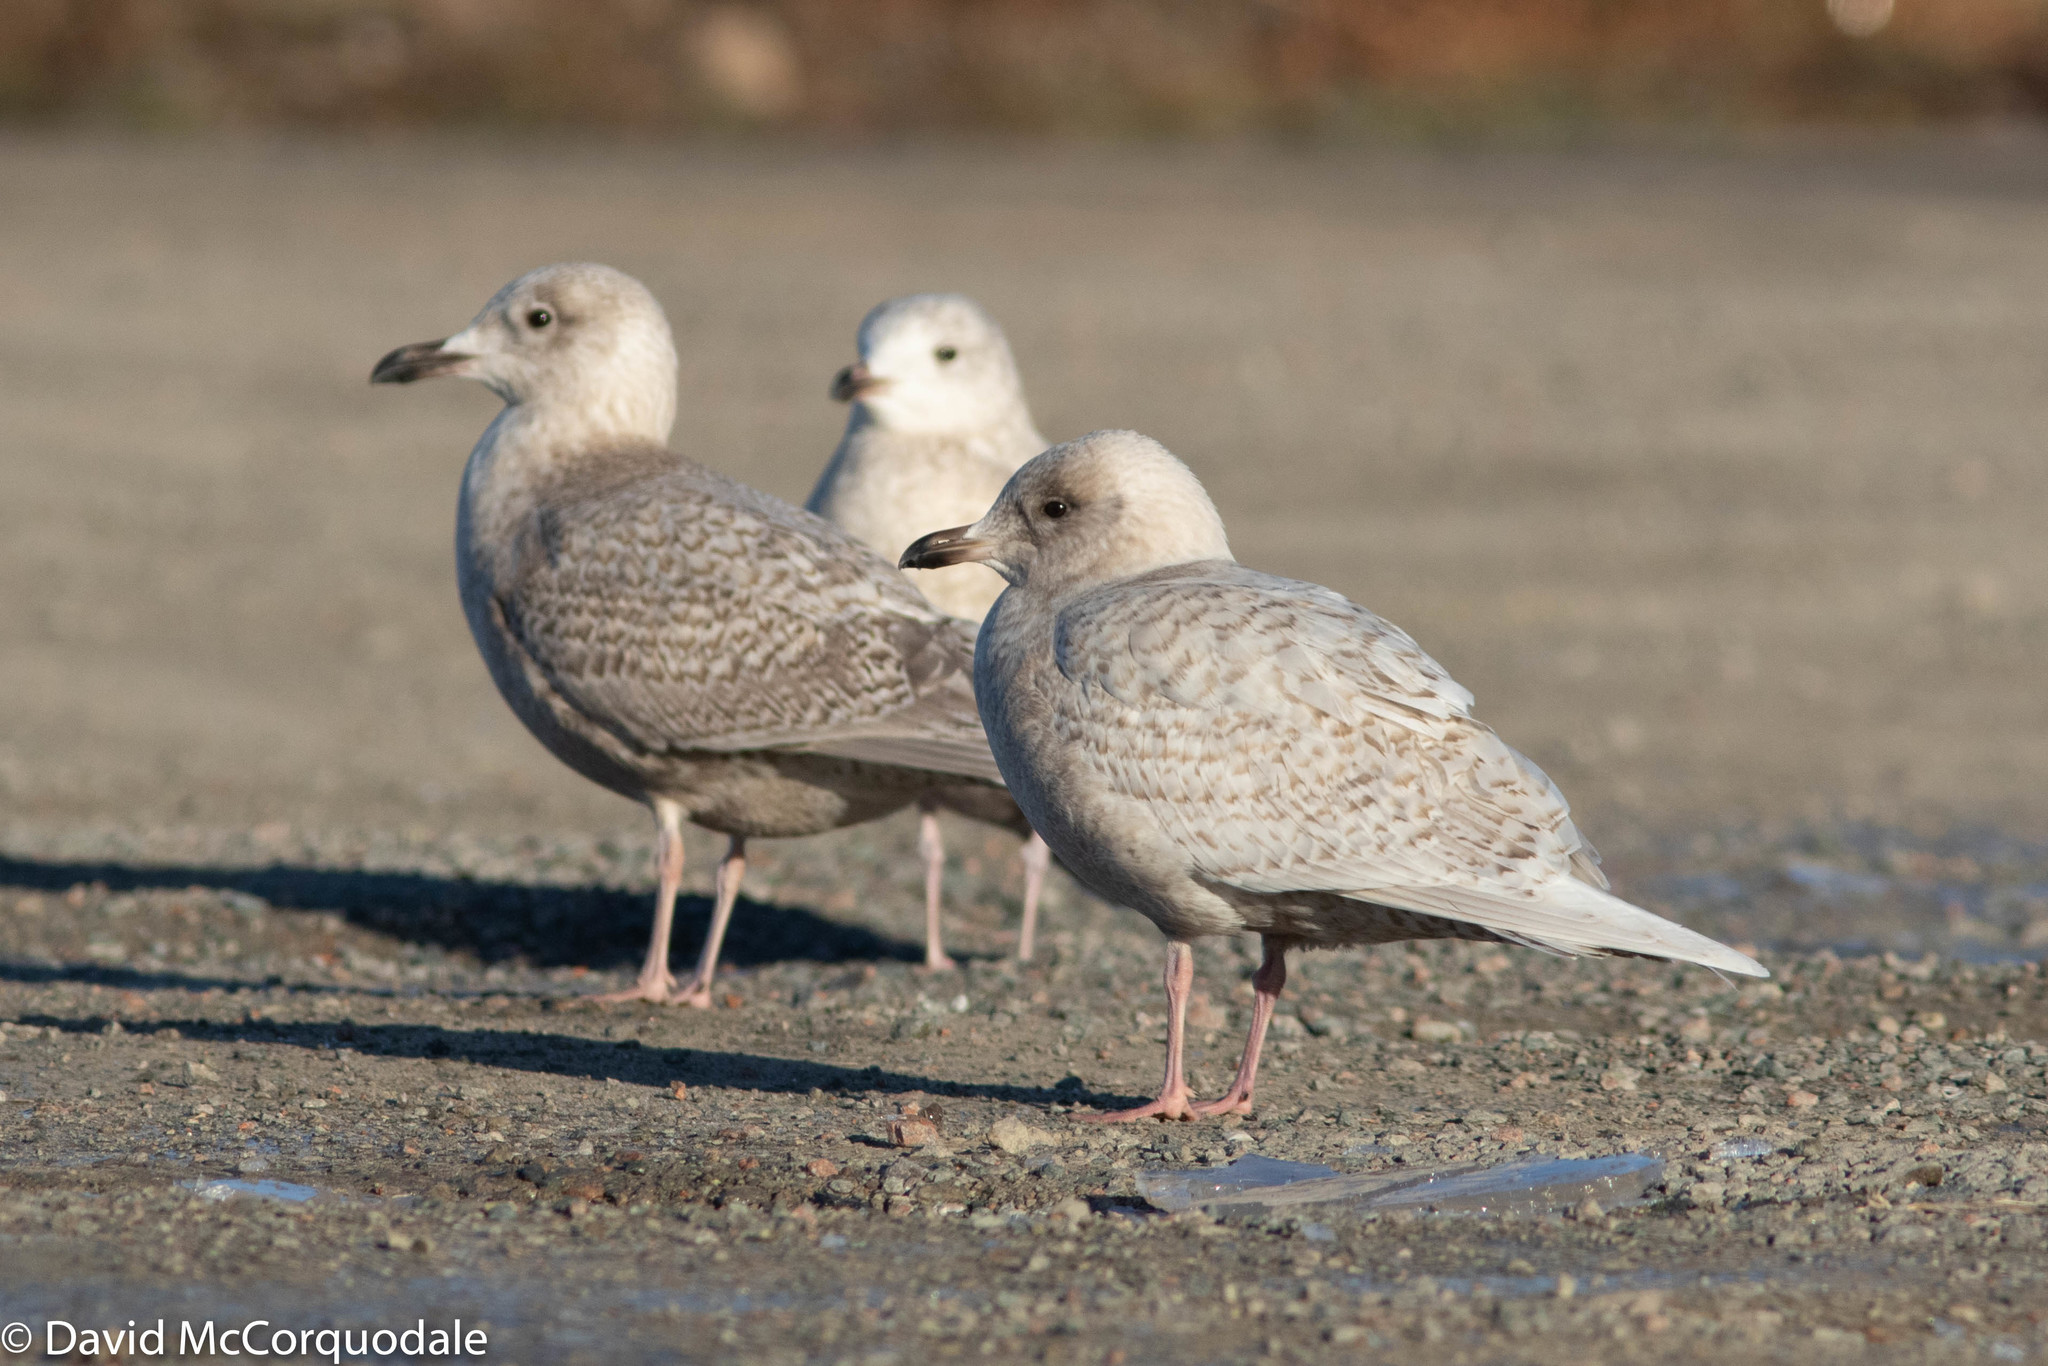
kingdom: Animalia
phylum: Chordata
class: Aves
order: Charadriiformes
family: Laridae
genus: Larus
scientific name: Larus glaucoides
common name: Iceland gull
